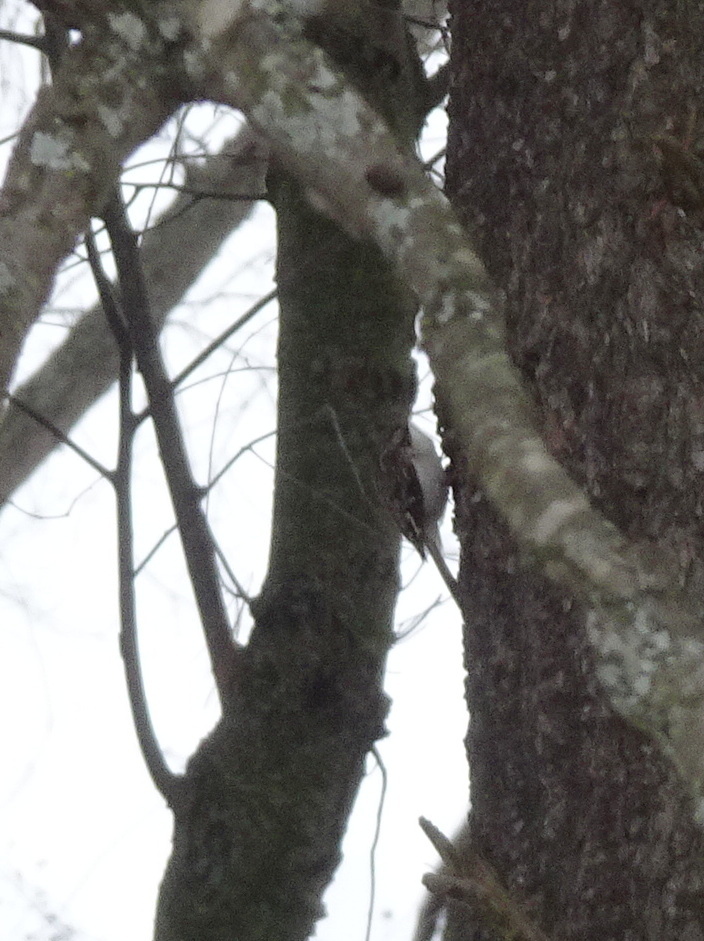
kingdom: Animalia
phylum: Chordata
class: Aves
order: Passeriformes
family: Certhiidae
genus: Certhia
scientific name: Certhia americana
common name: Brown creeper
